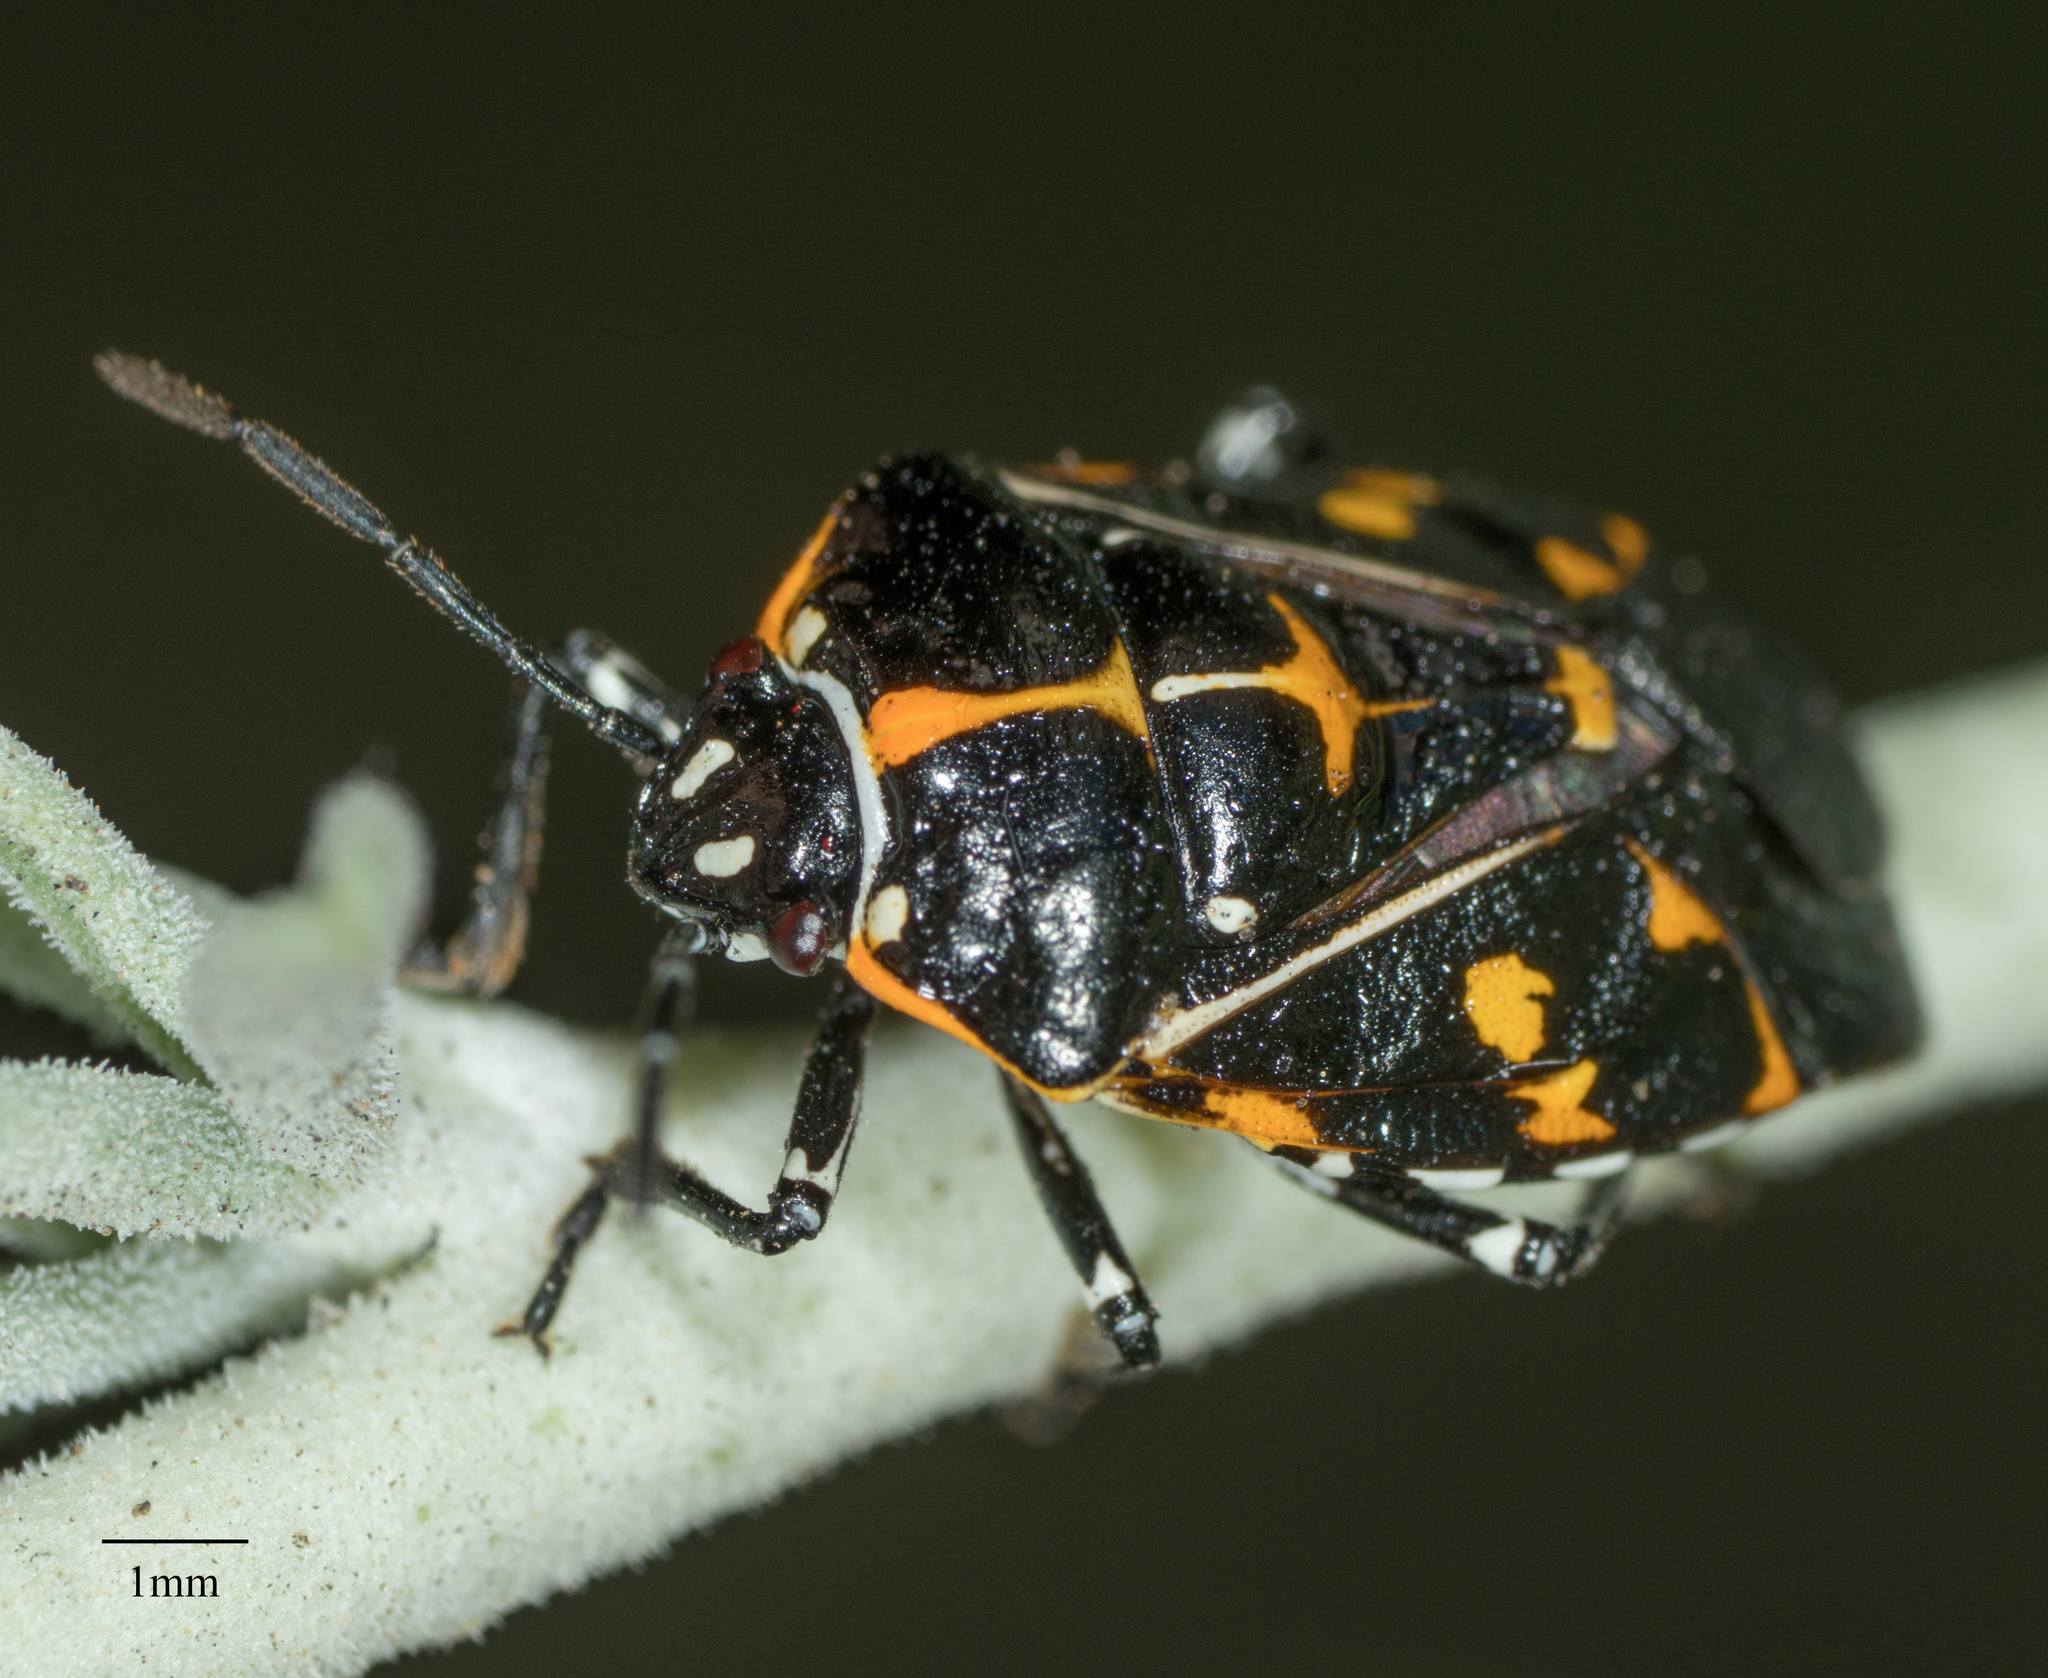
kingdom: Animalia
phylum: Arthropoda
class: Insecta
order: Hemiptera
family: Pentatomidae
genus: Murgantia
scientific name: Murgantia histrionica
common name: Harlequin bug
